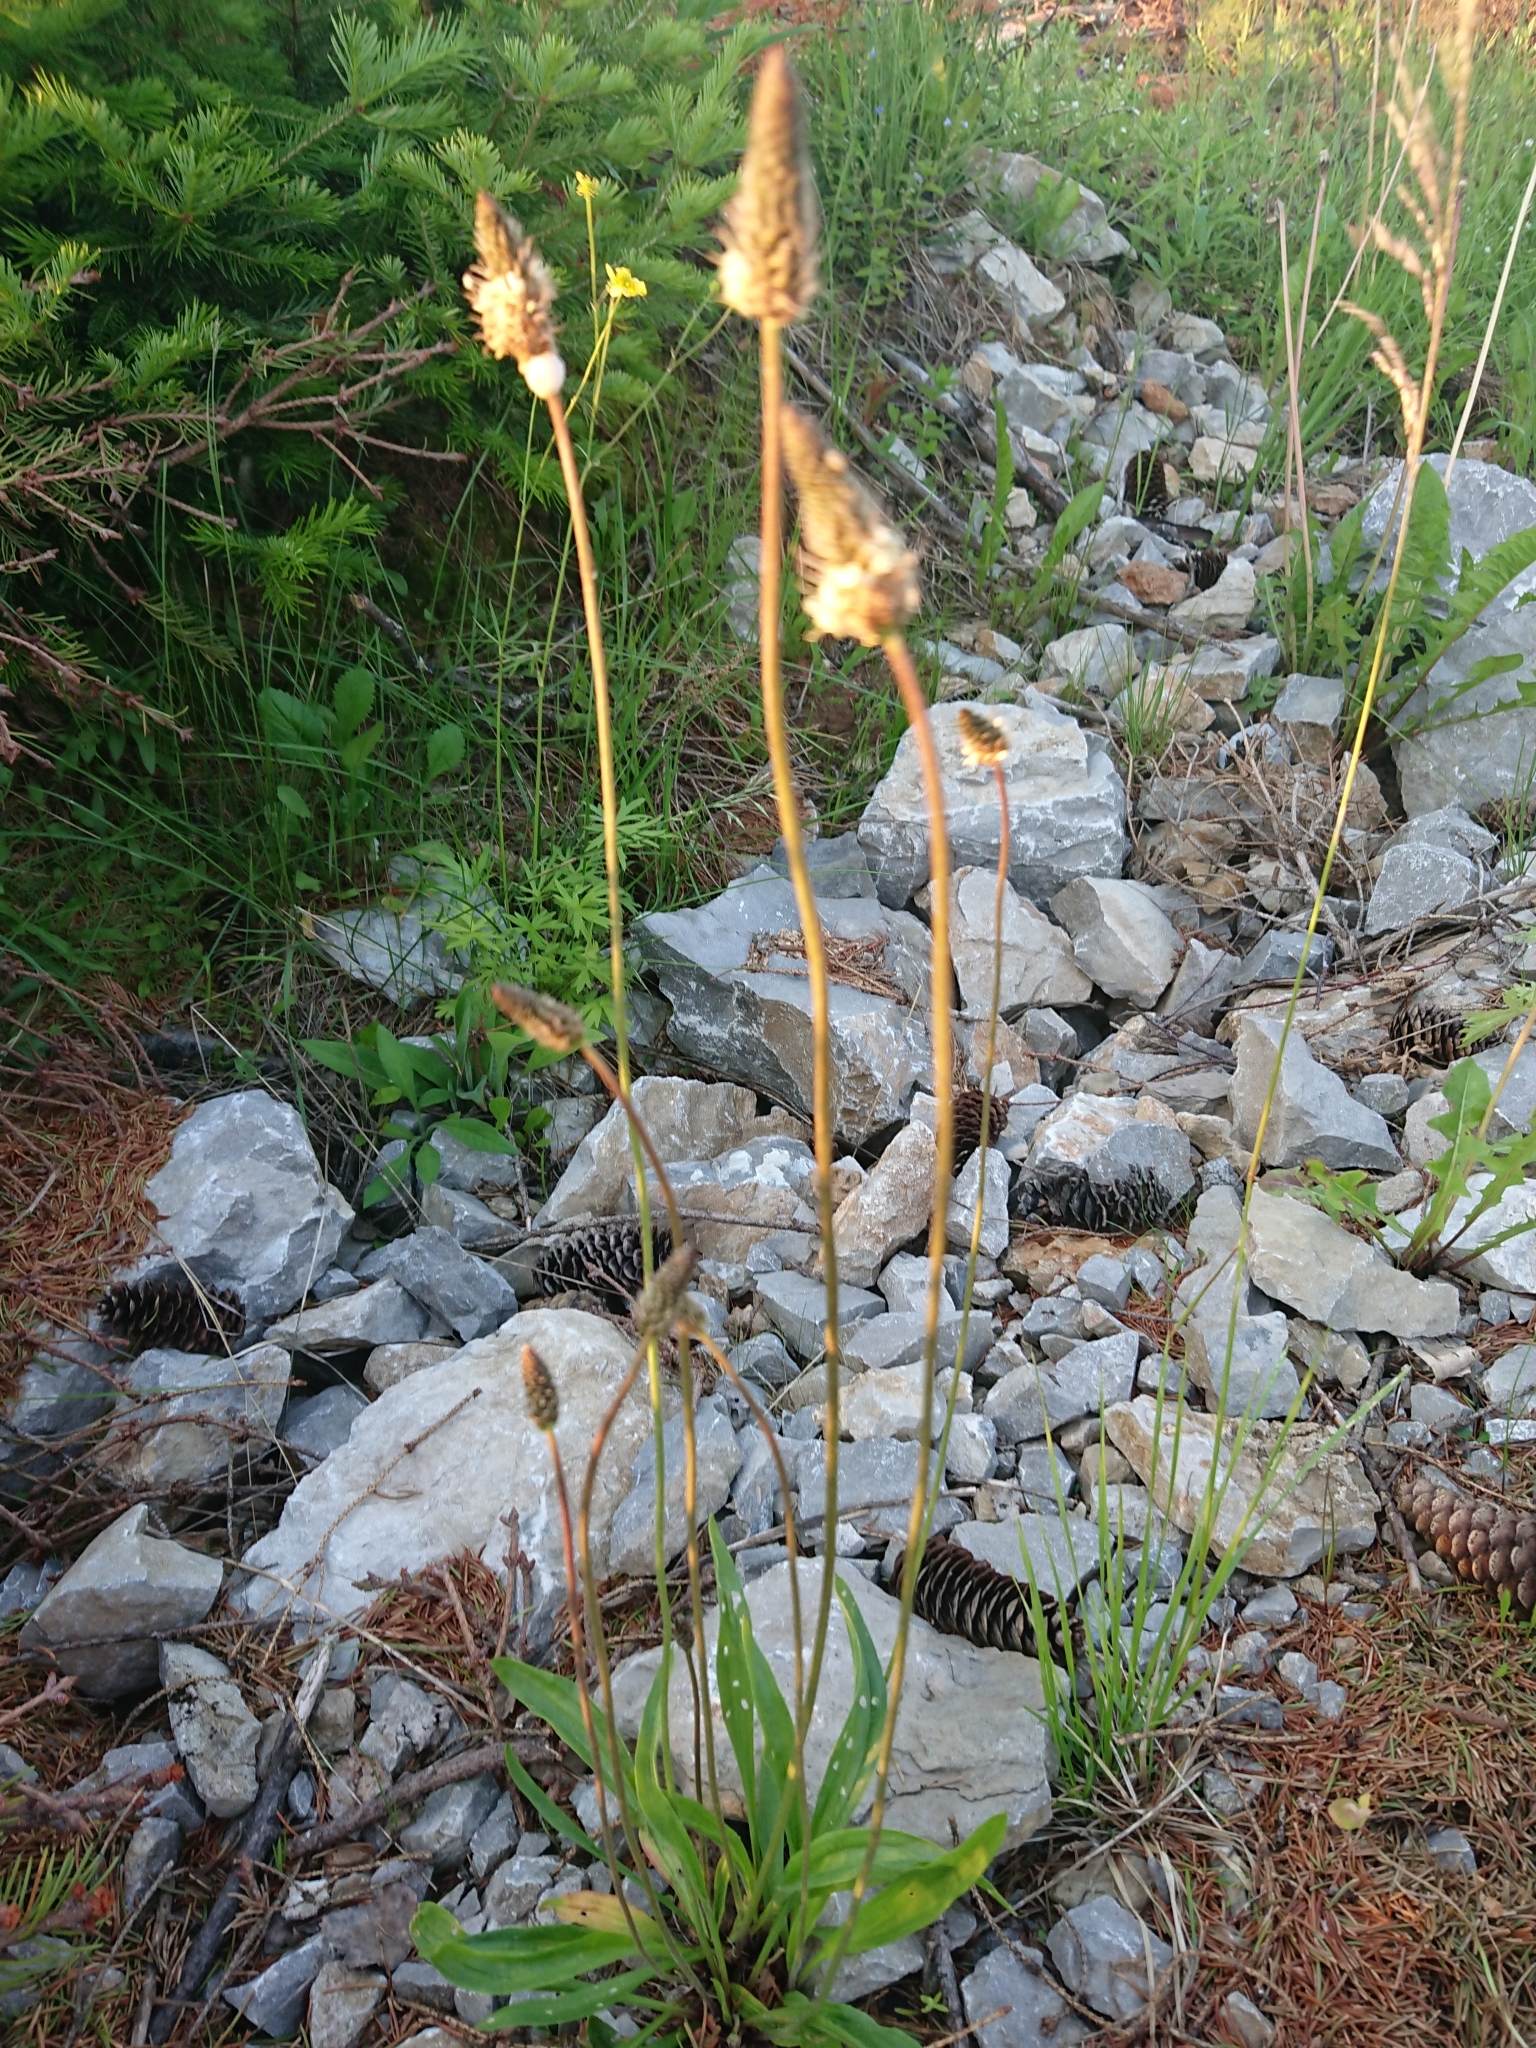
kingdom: Plantae
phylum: Tracheophyta
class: Magnoliopsida
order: Lamiales
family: Plantaginaceae
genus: Plantago
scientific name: Plantago lanceolata
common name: Ribwort plantain
